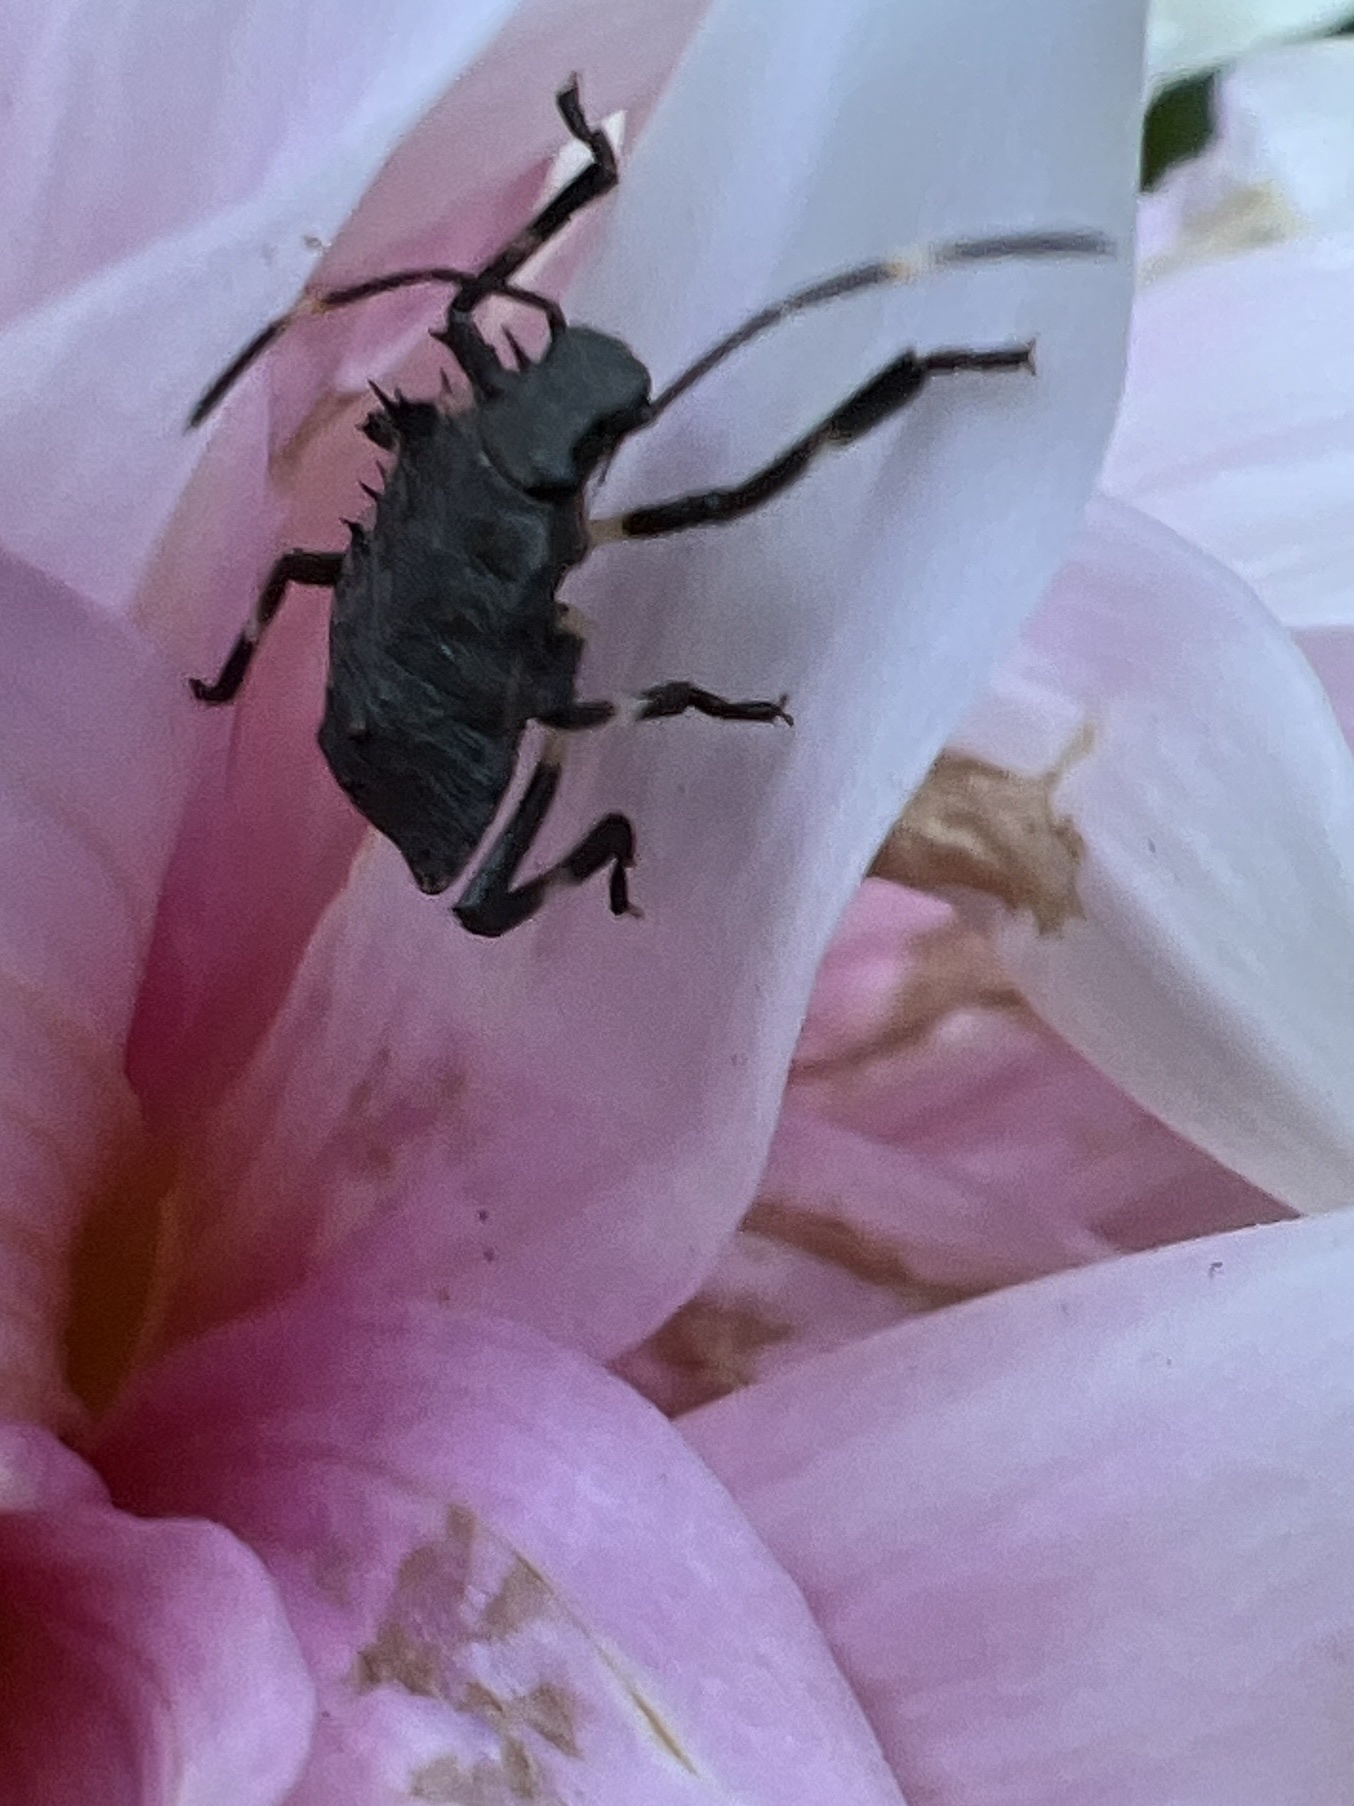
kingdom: Animalia
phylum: Arthropoda
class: Insecta
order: Hemiptera
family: Pentatomidae
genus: Halyomorpha
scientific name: Halyomorpha halys
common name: Brown marmorated stink bug
